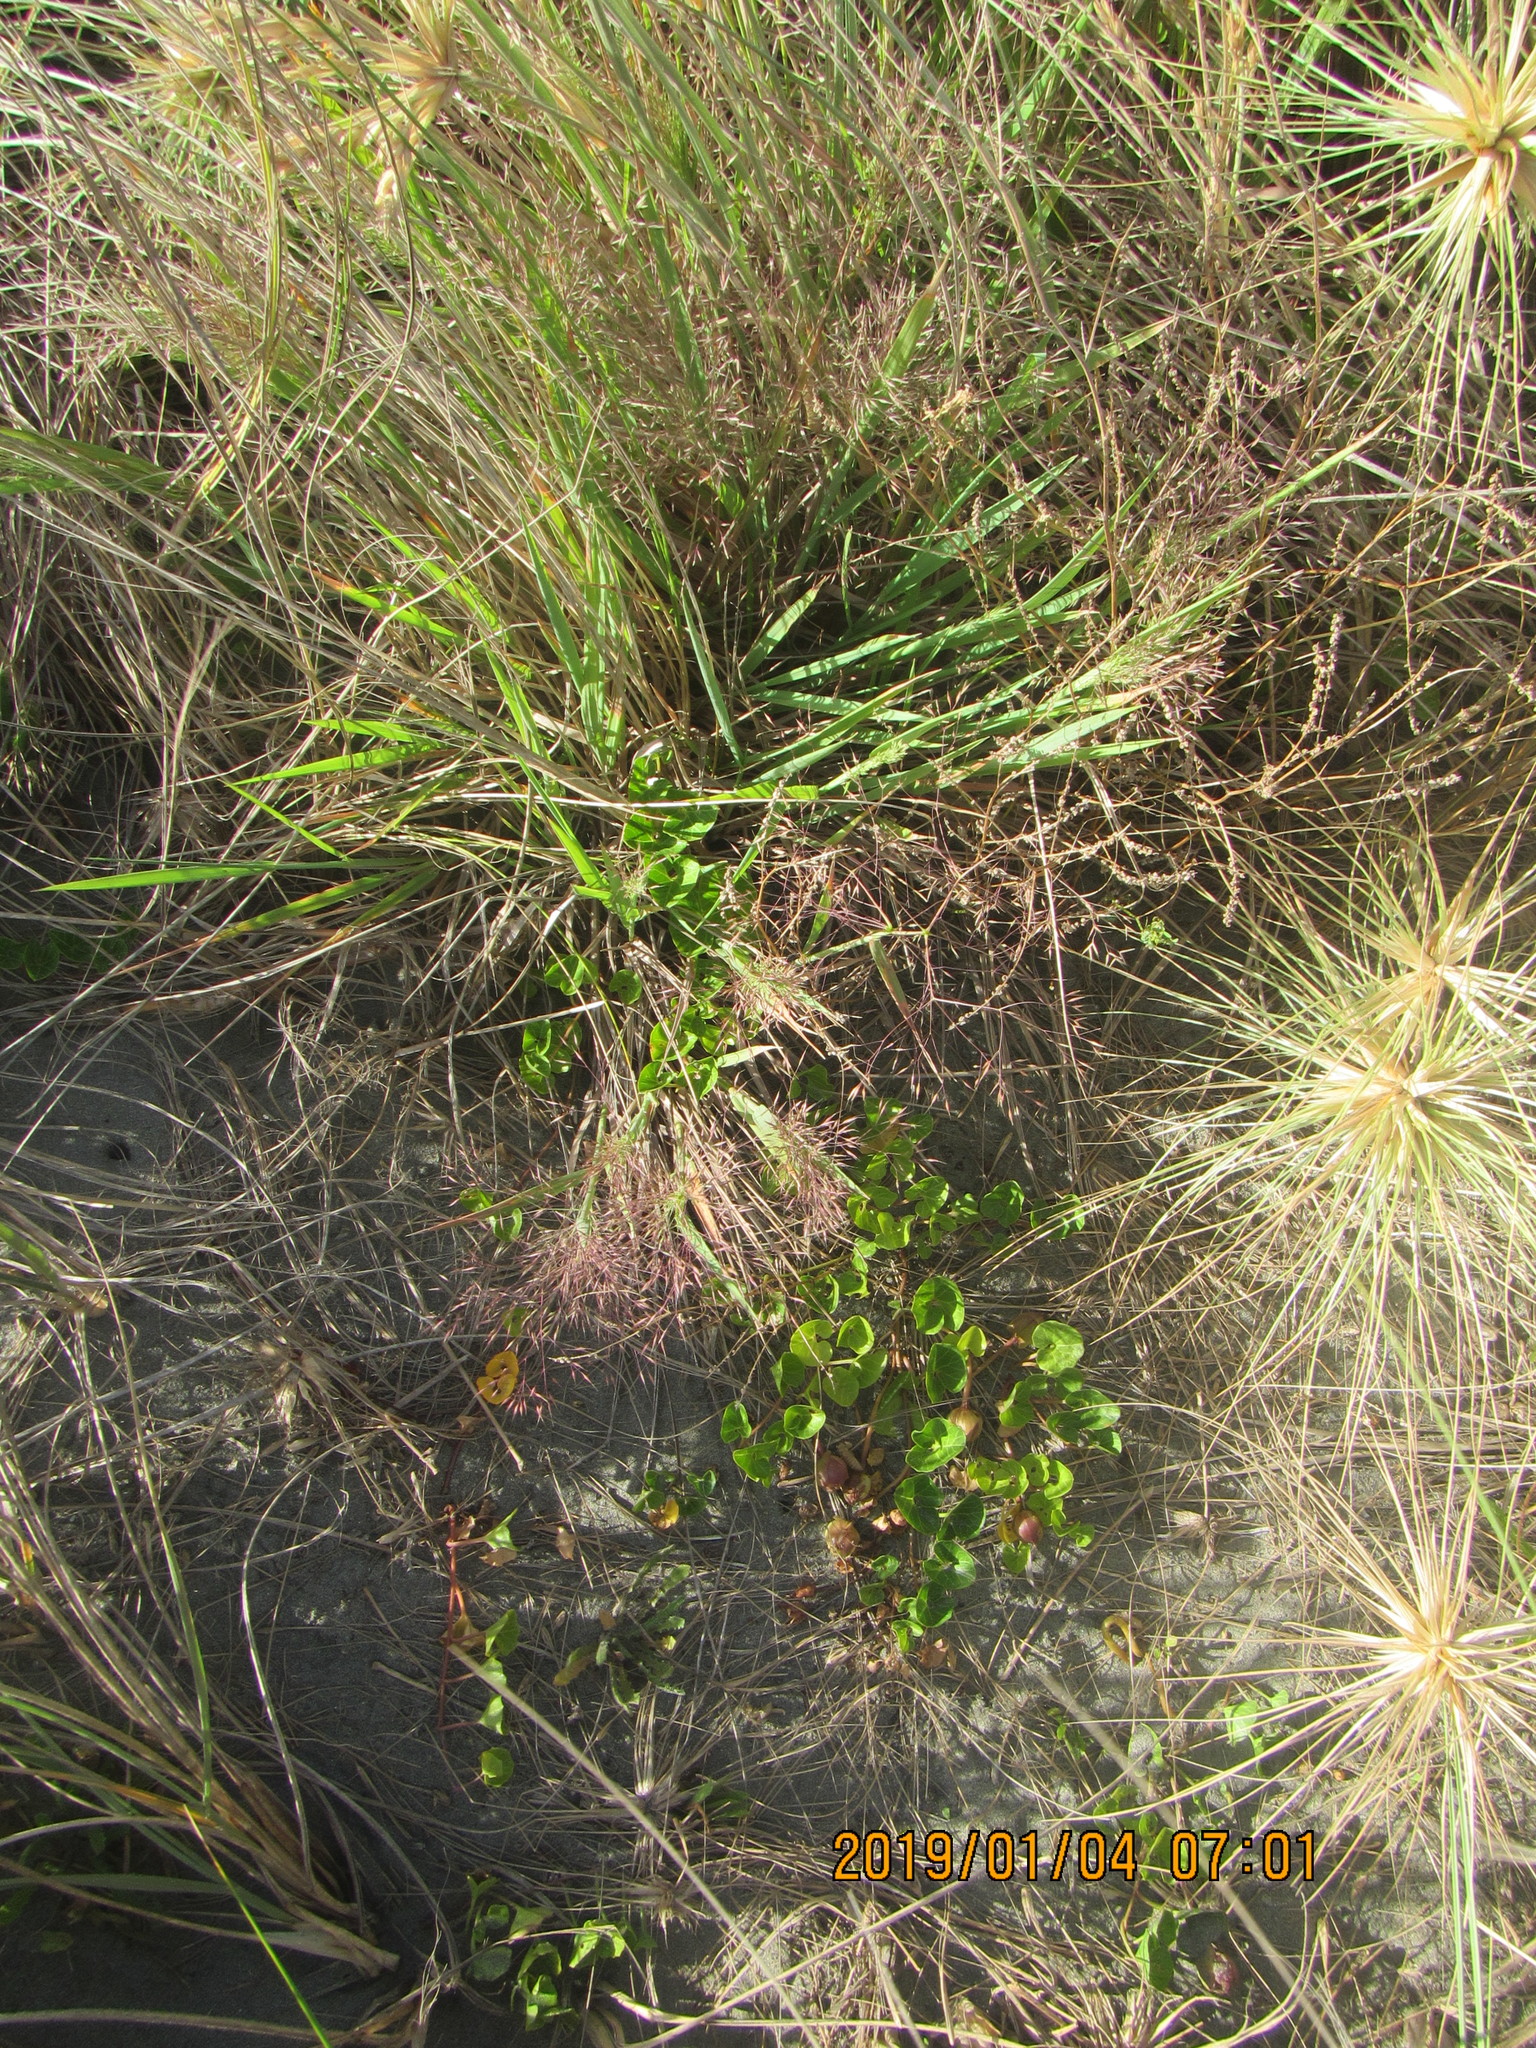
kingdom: Plantae
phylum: Tracheophyta
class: Liliopsida
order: Poales
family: Poaceae
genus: Lachnagrostis
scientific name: Lachnagrostis billardierei
